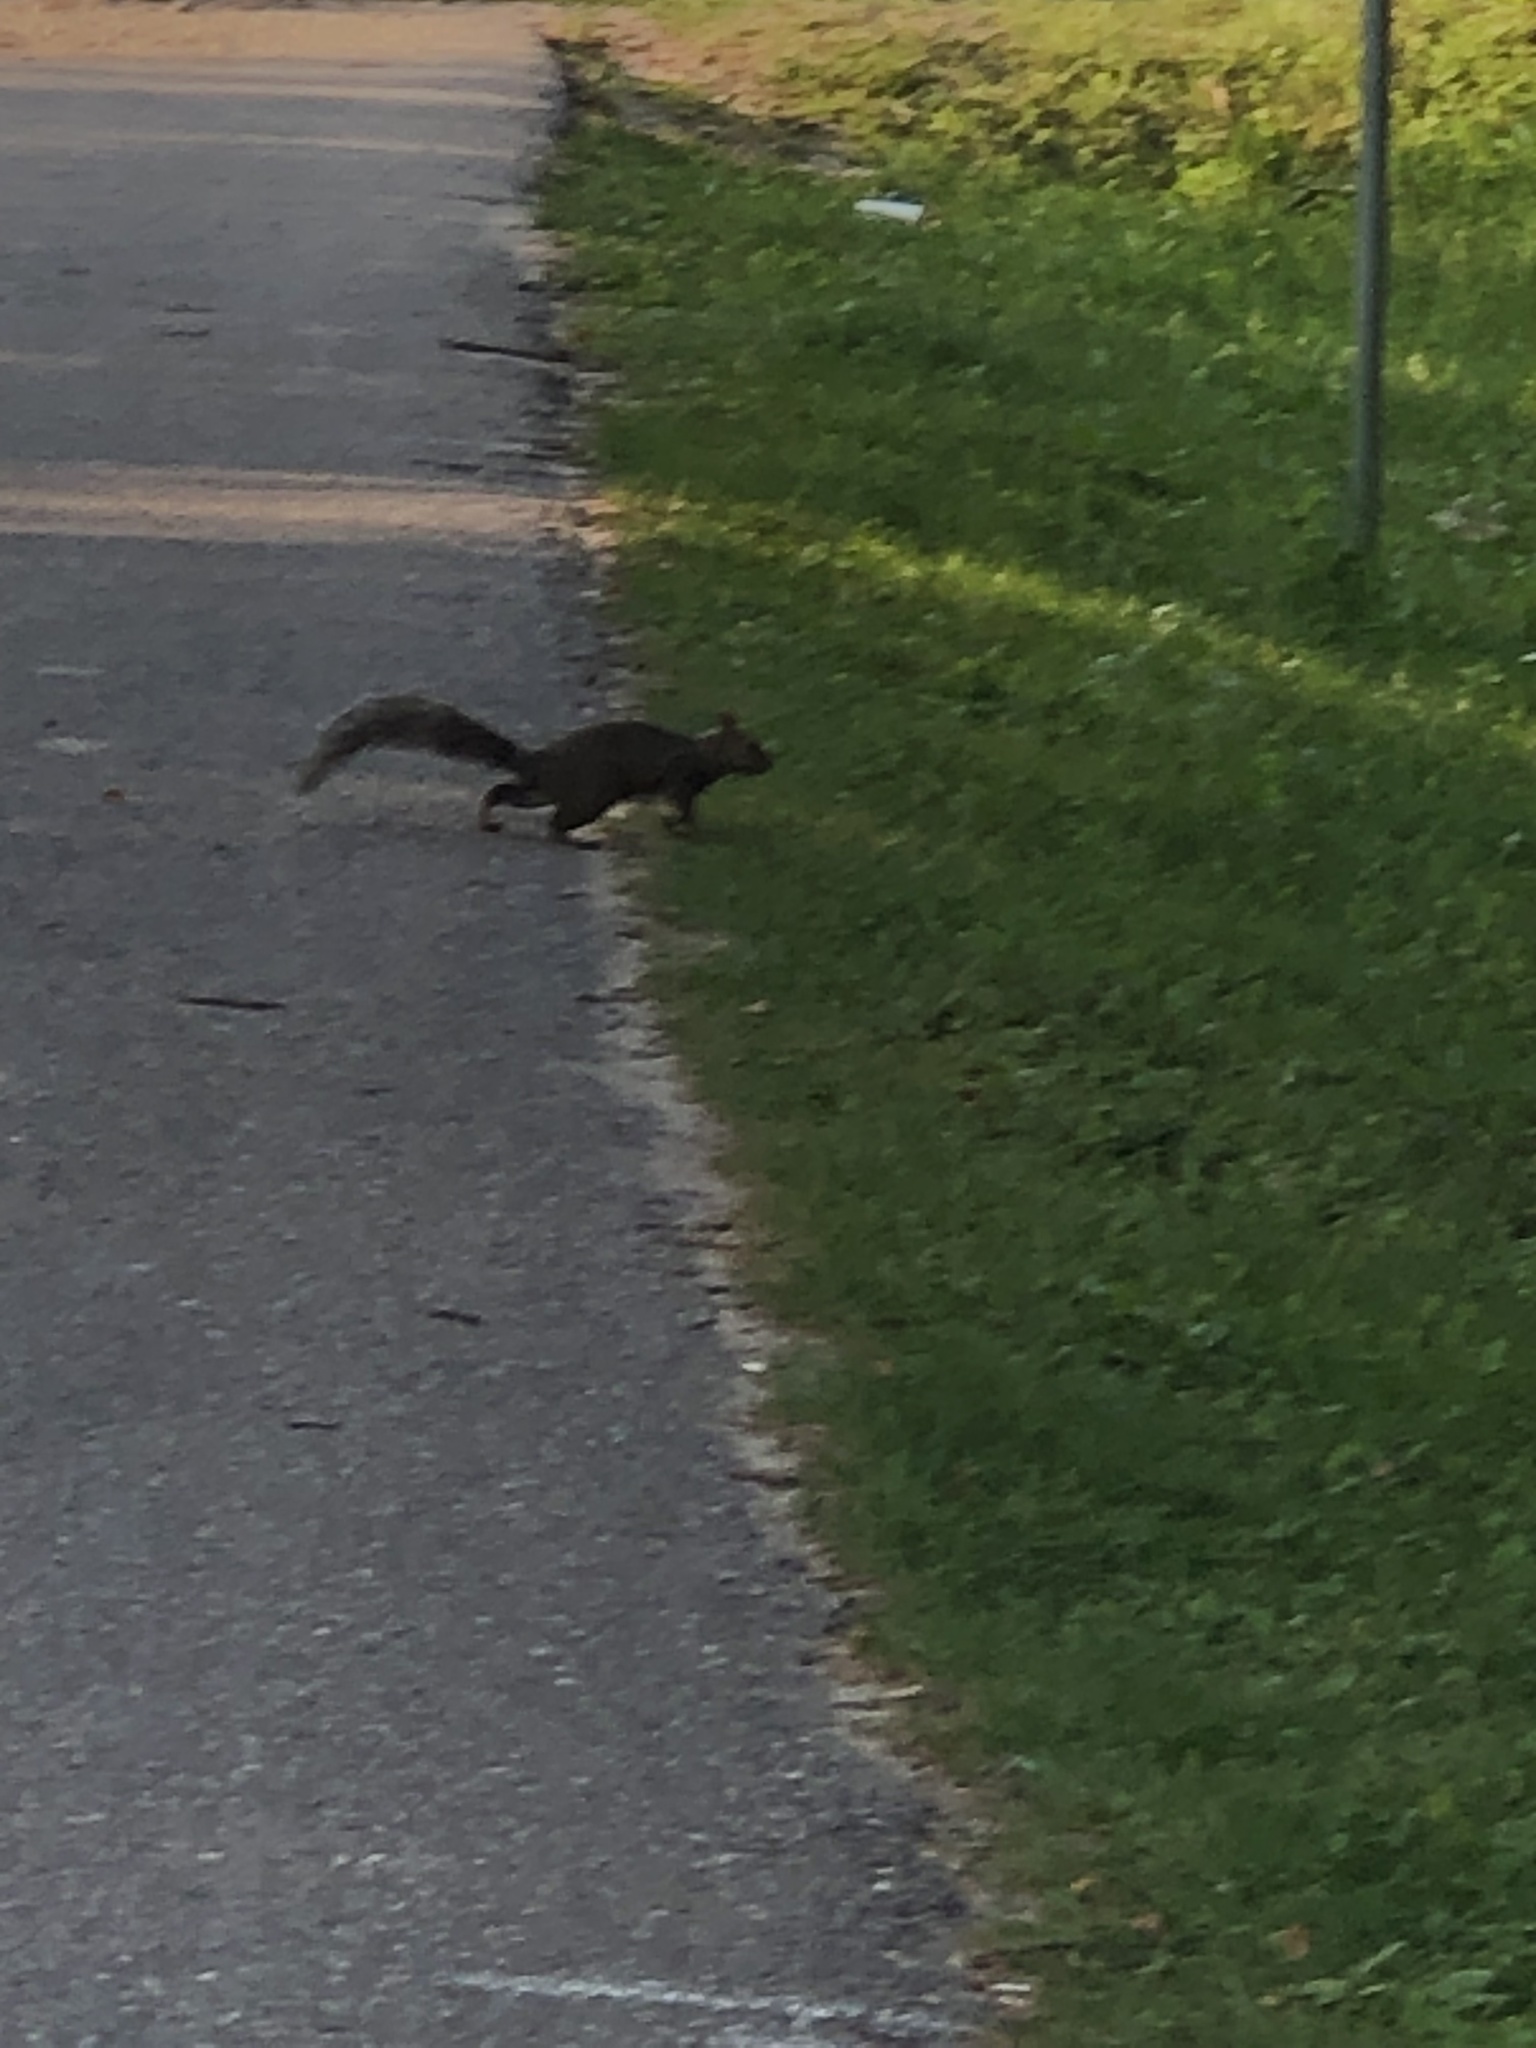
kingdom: Animalia
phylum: Chordata
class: Mammalia
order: Rodentia
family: Sciuridae
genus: Sciurus
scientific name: Sciurus carolinensis
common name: Eastern gray squirrel
